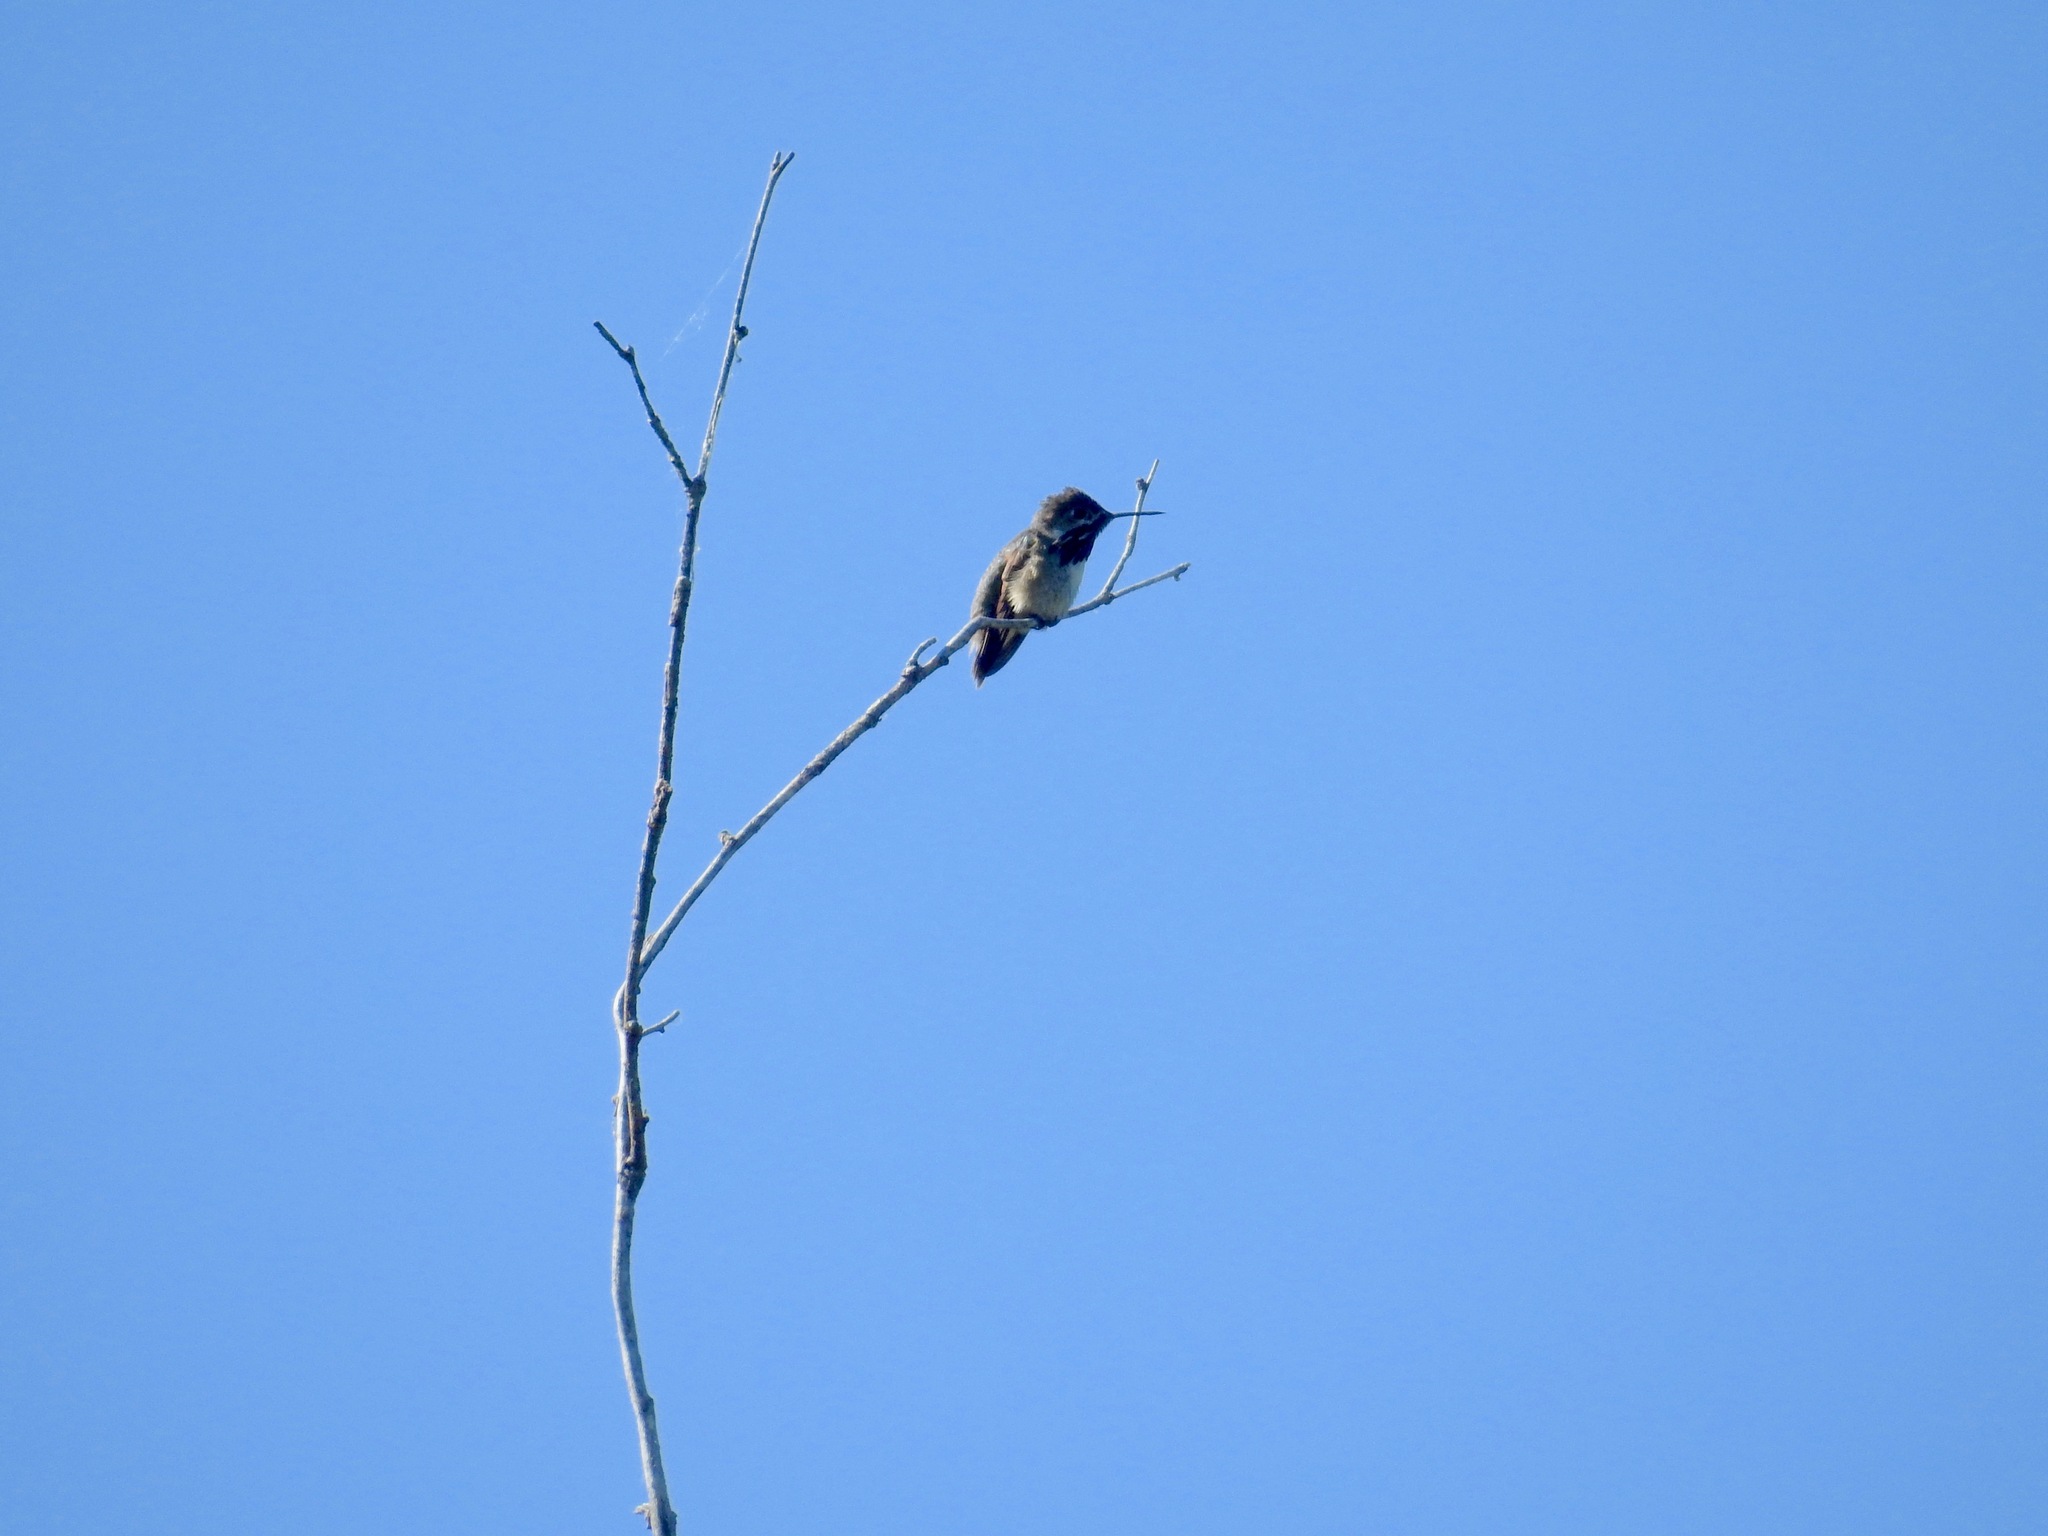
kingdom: Animalia
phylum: Chordata
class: Aves
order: Apodiformes
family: Trochilidae
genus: Selasphorus
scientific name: Selasphorus calliope
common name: Calliope hummingbird
